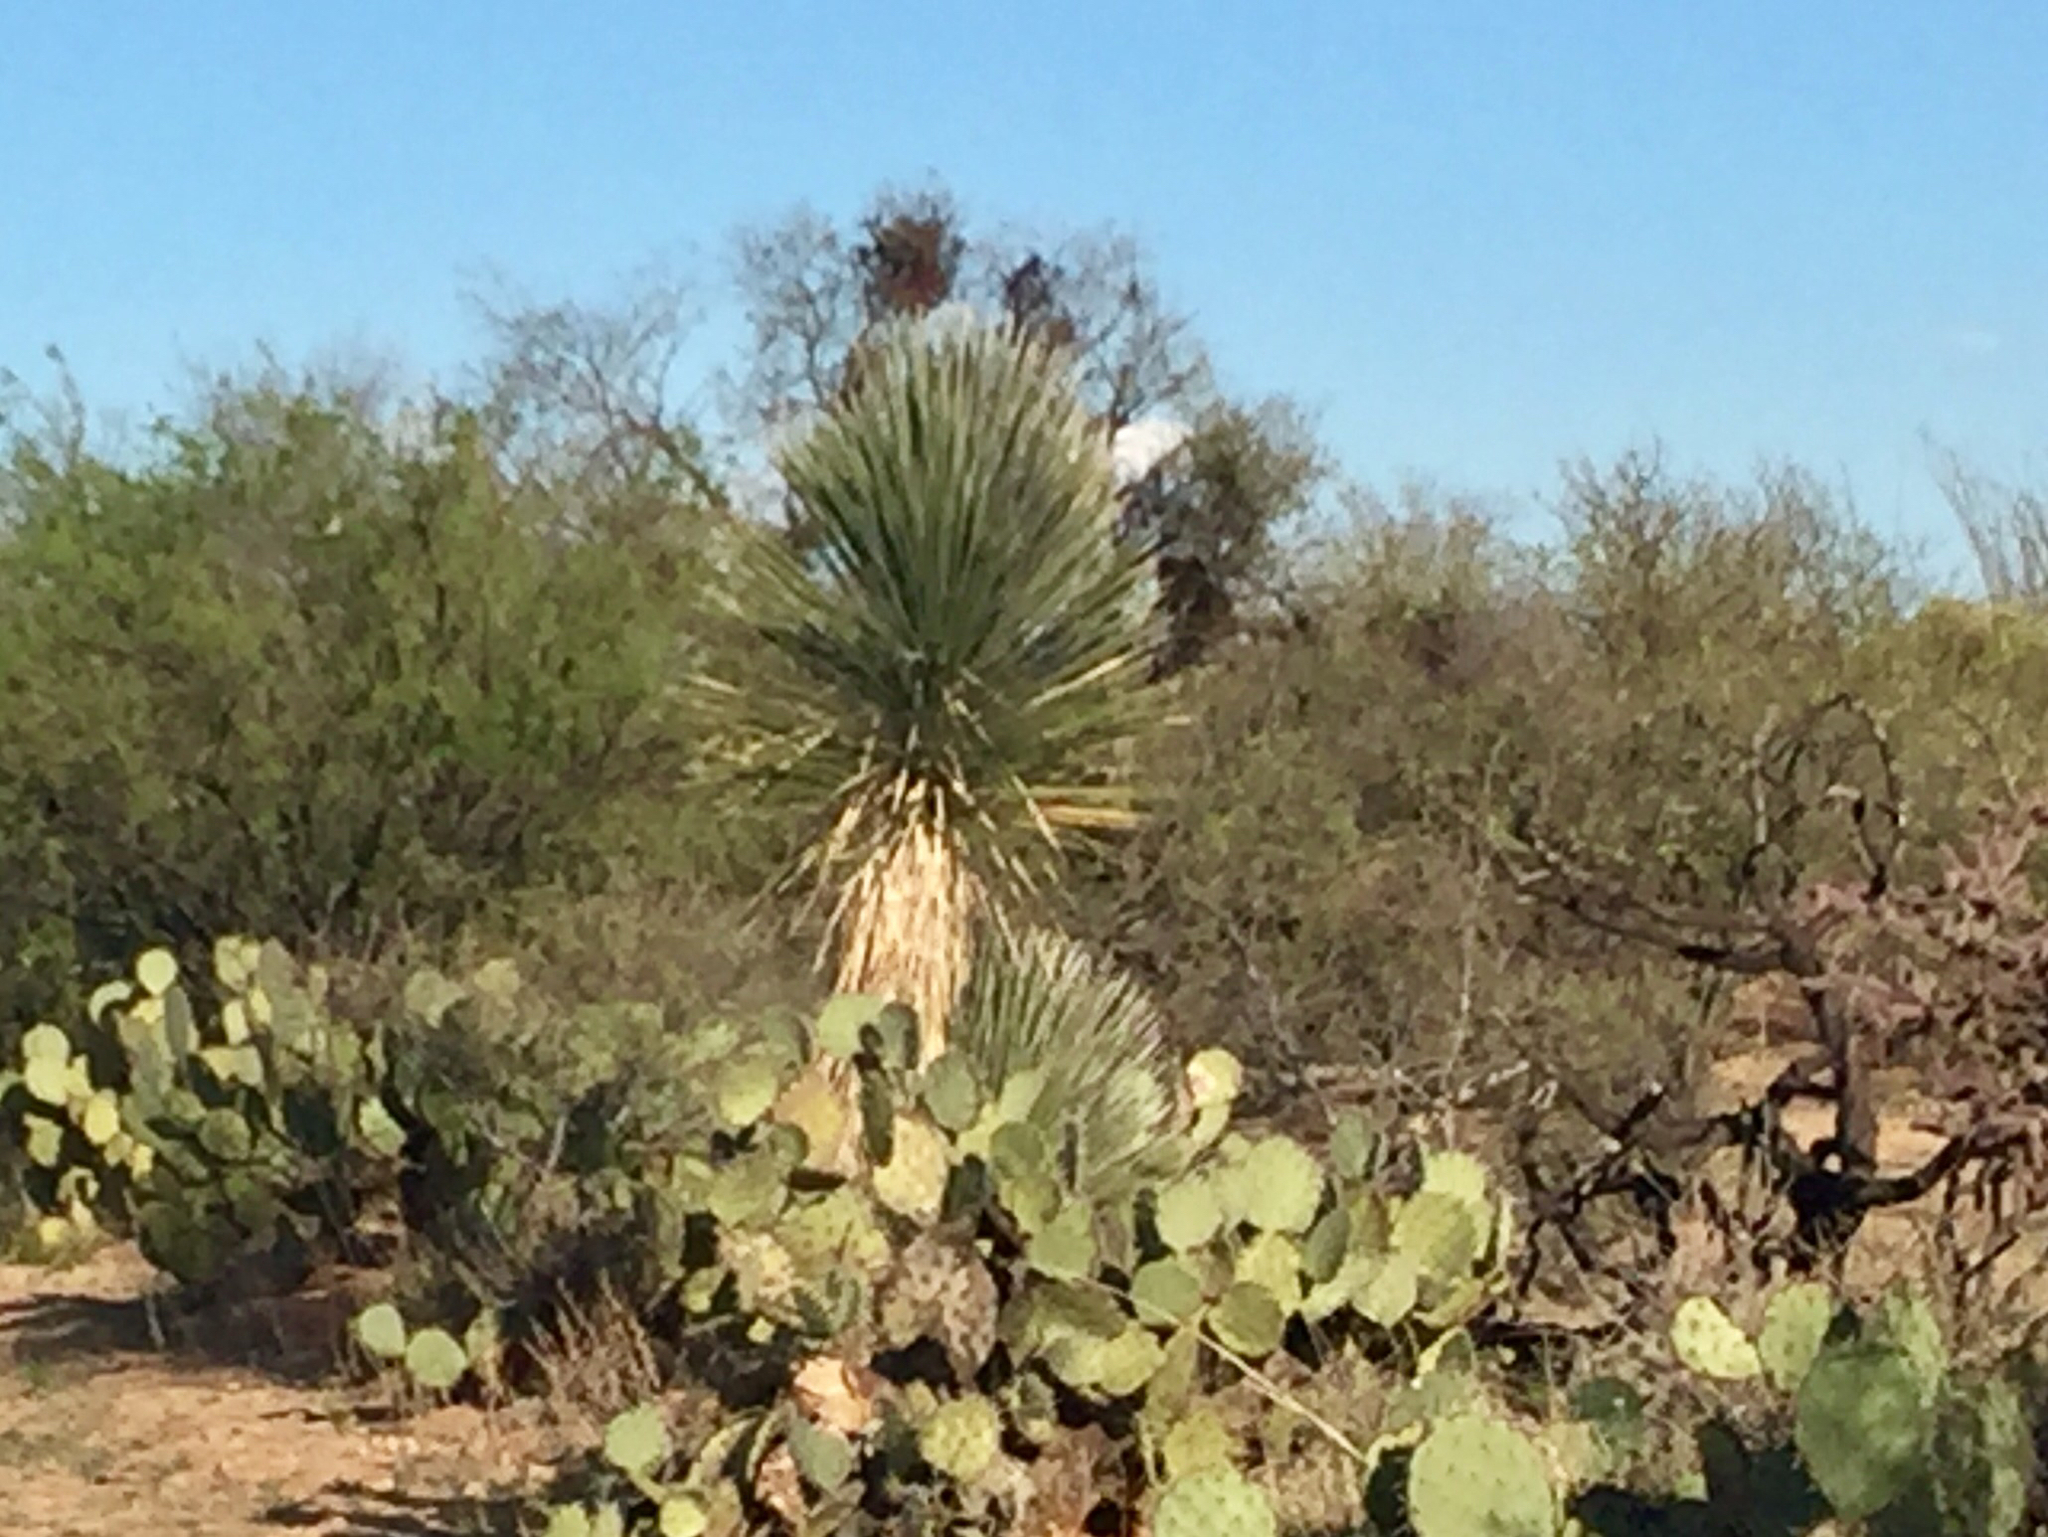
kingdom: Plantae
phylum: Tracheophyta
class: Liliopsida
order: Asparagales
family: Asparagaceae
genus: Yucca
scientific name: Yucca elata
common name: Palmella
